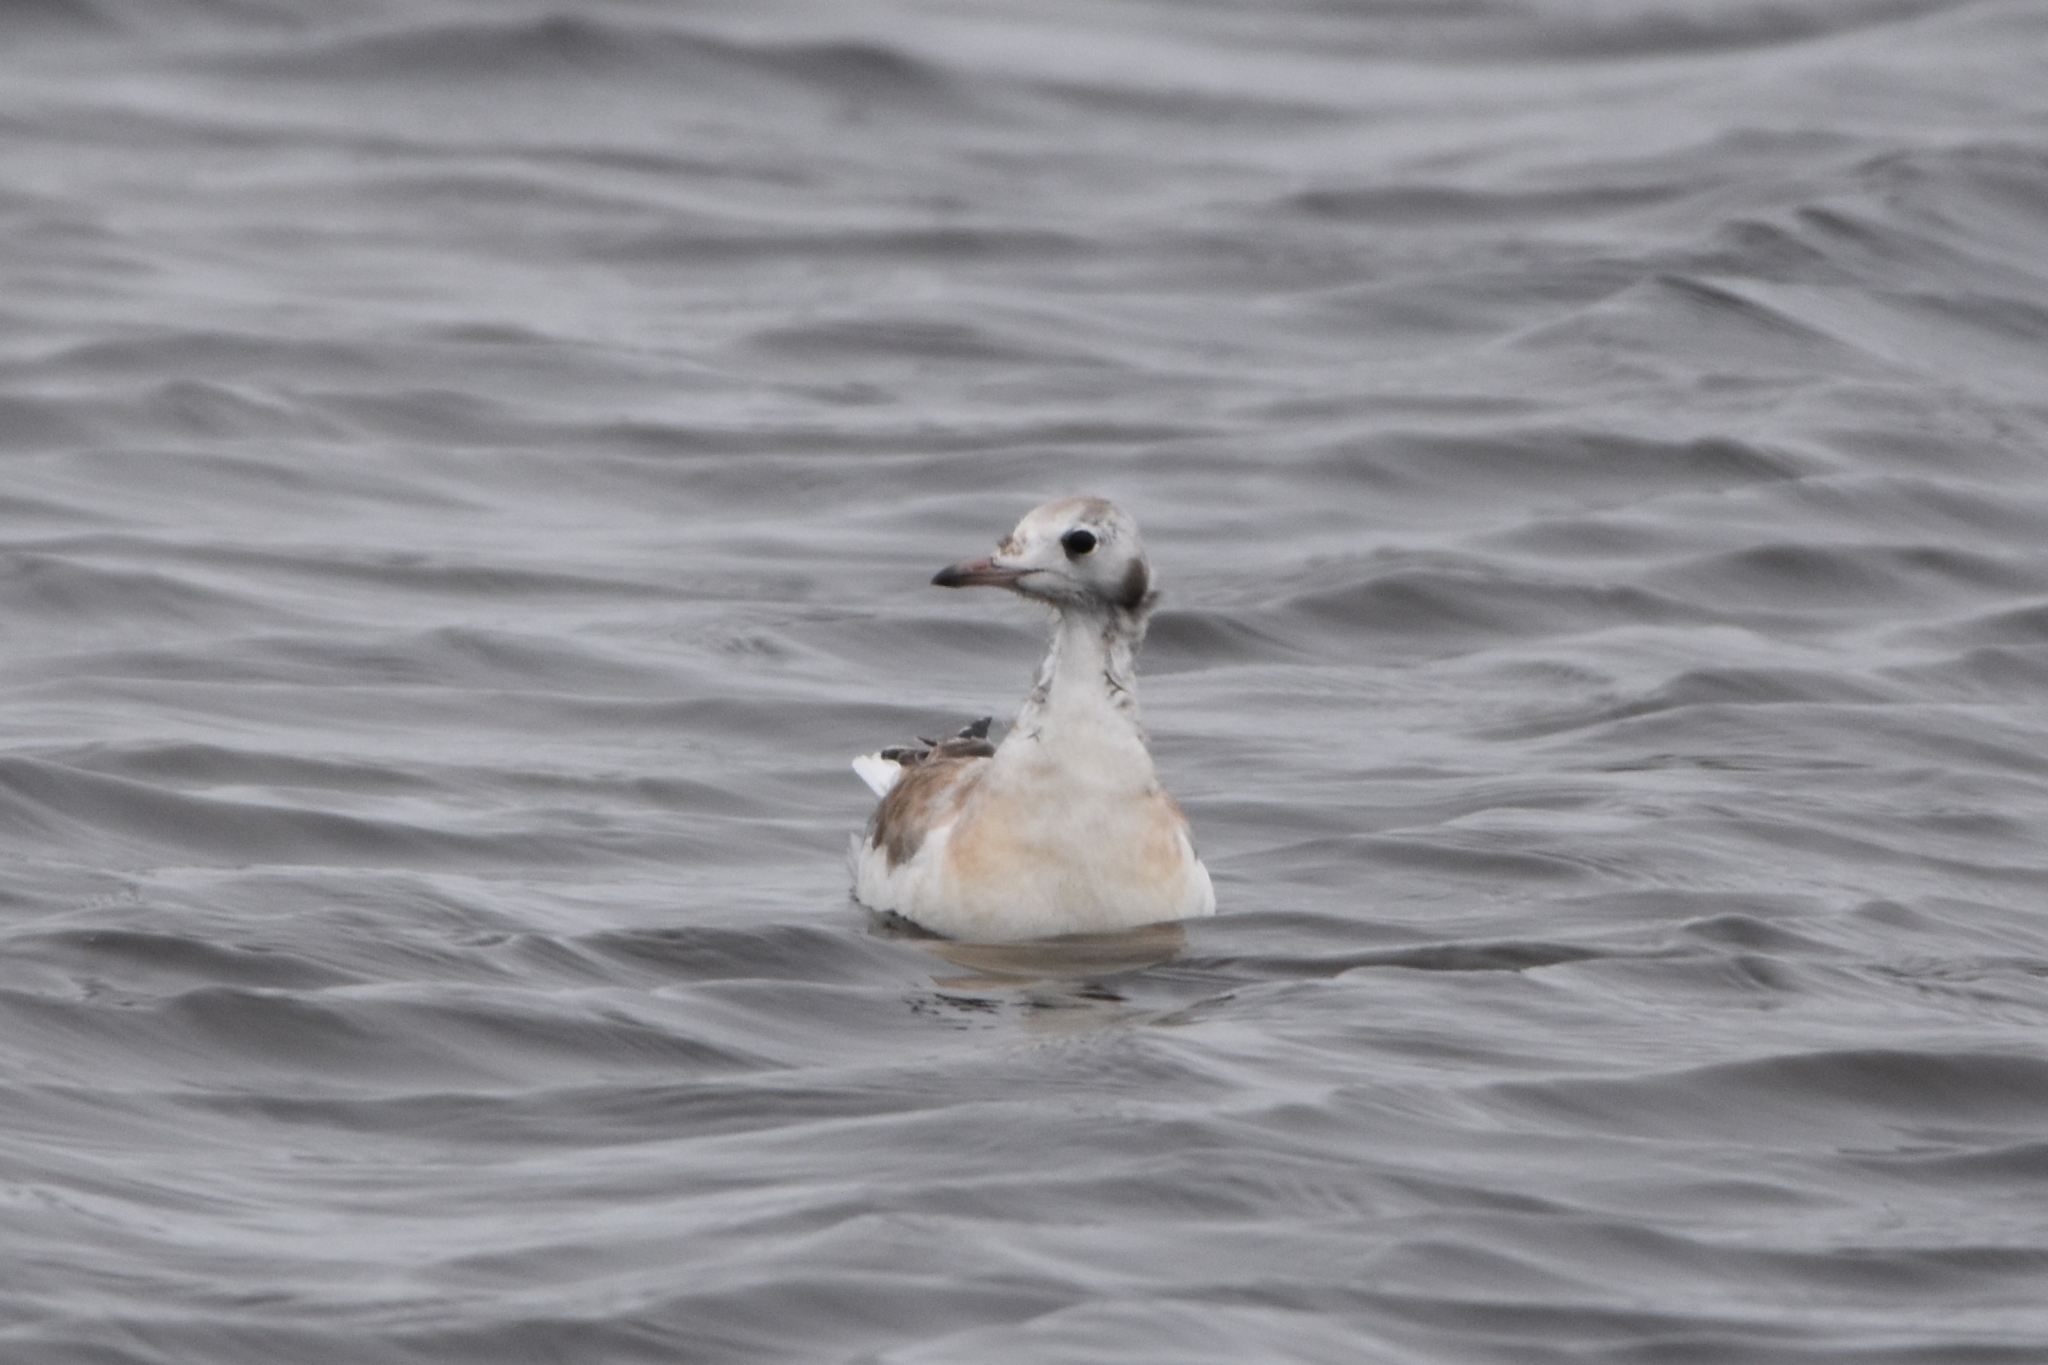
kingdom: Animalia
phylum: Chordata
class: Aves
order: Charadriiformes
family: Laridae
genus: Chroicocephalus
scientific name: Chroicocephalus ridibundus
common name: Black-headed gull
